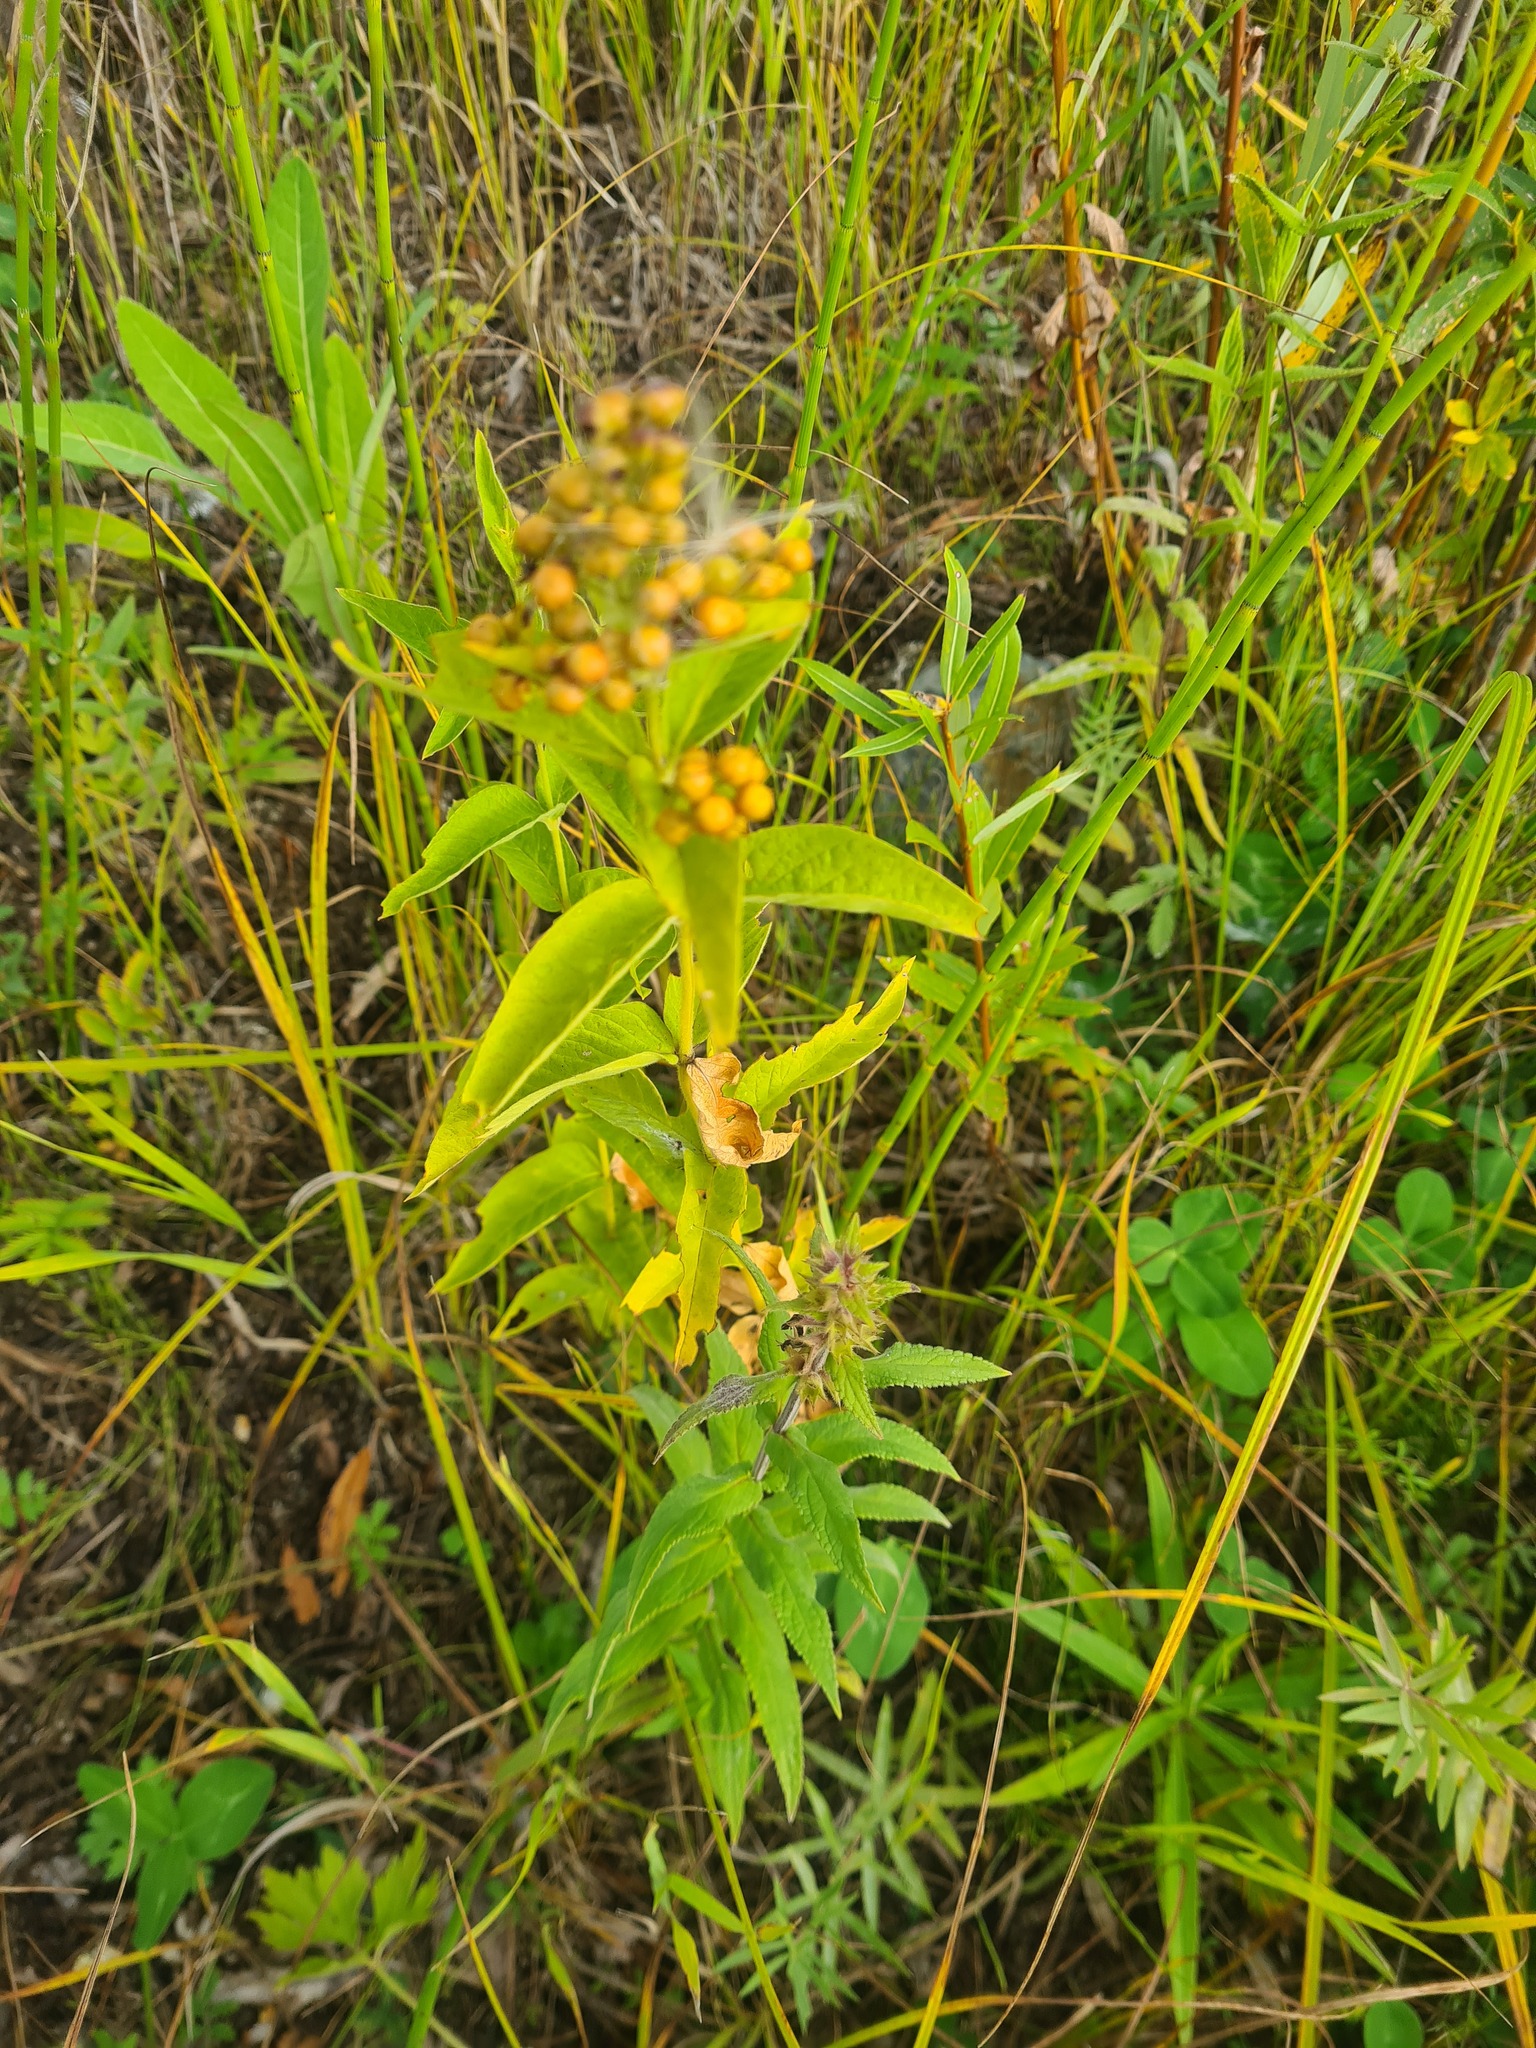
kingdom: Plantae
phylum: Tracheophyta
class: Magnoliopsida
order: Ericales
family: Primulaceae
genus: Lysimachia
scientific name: Lysimachia vulgaris
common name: Yellow loosestrife
